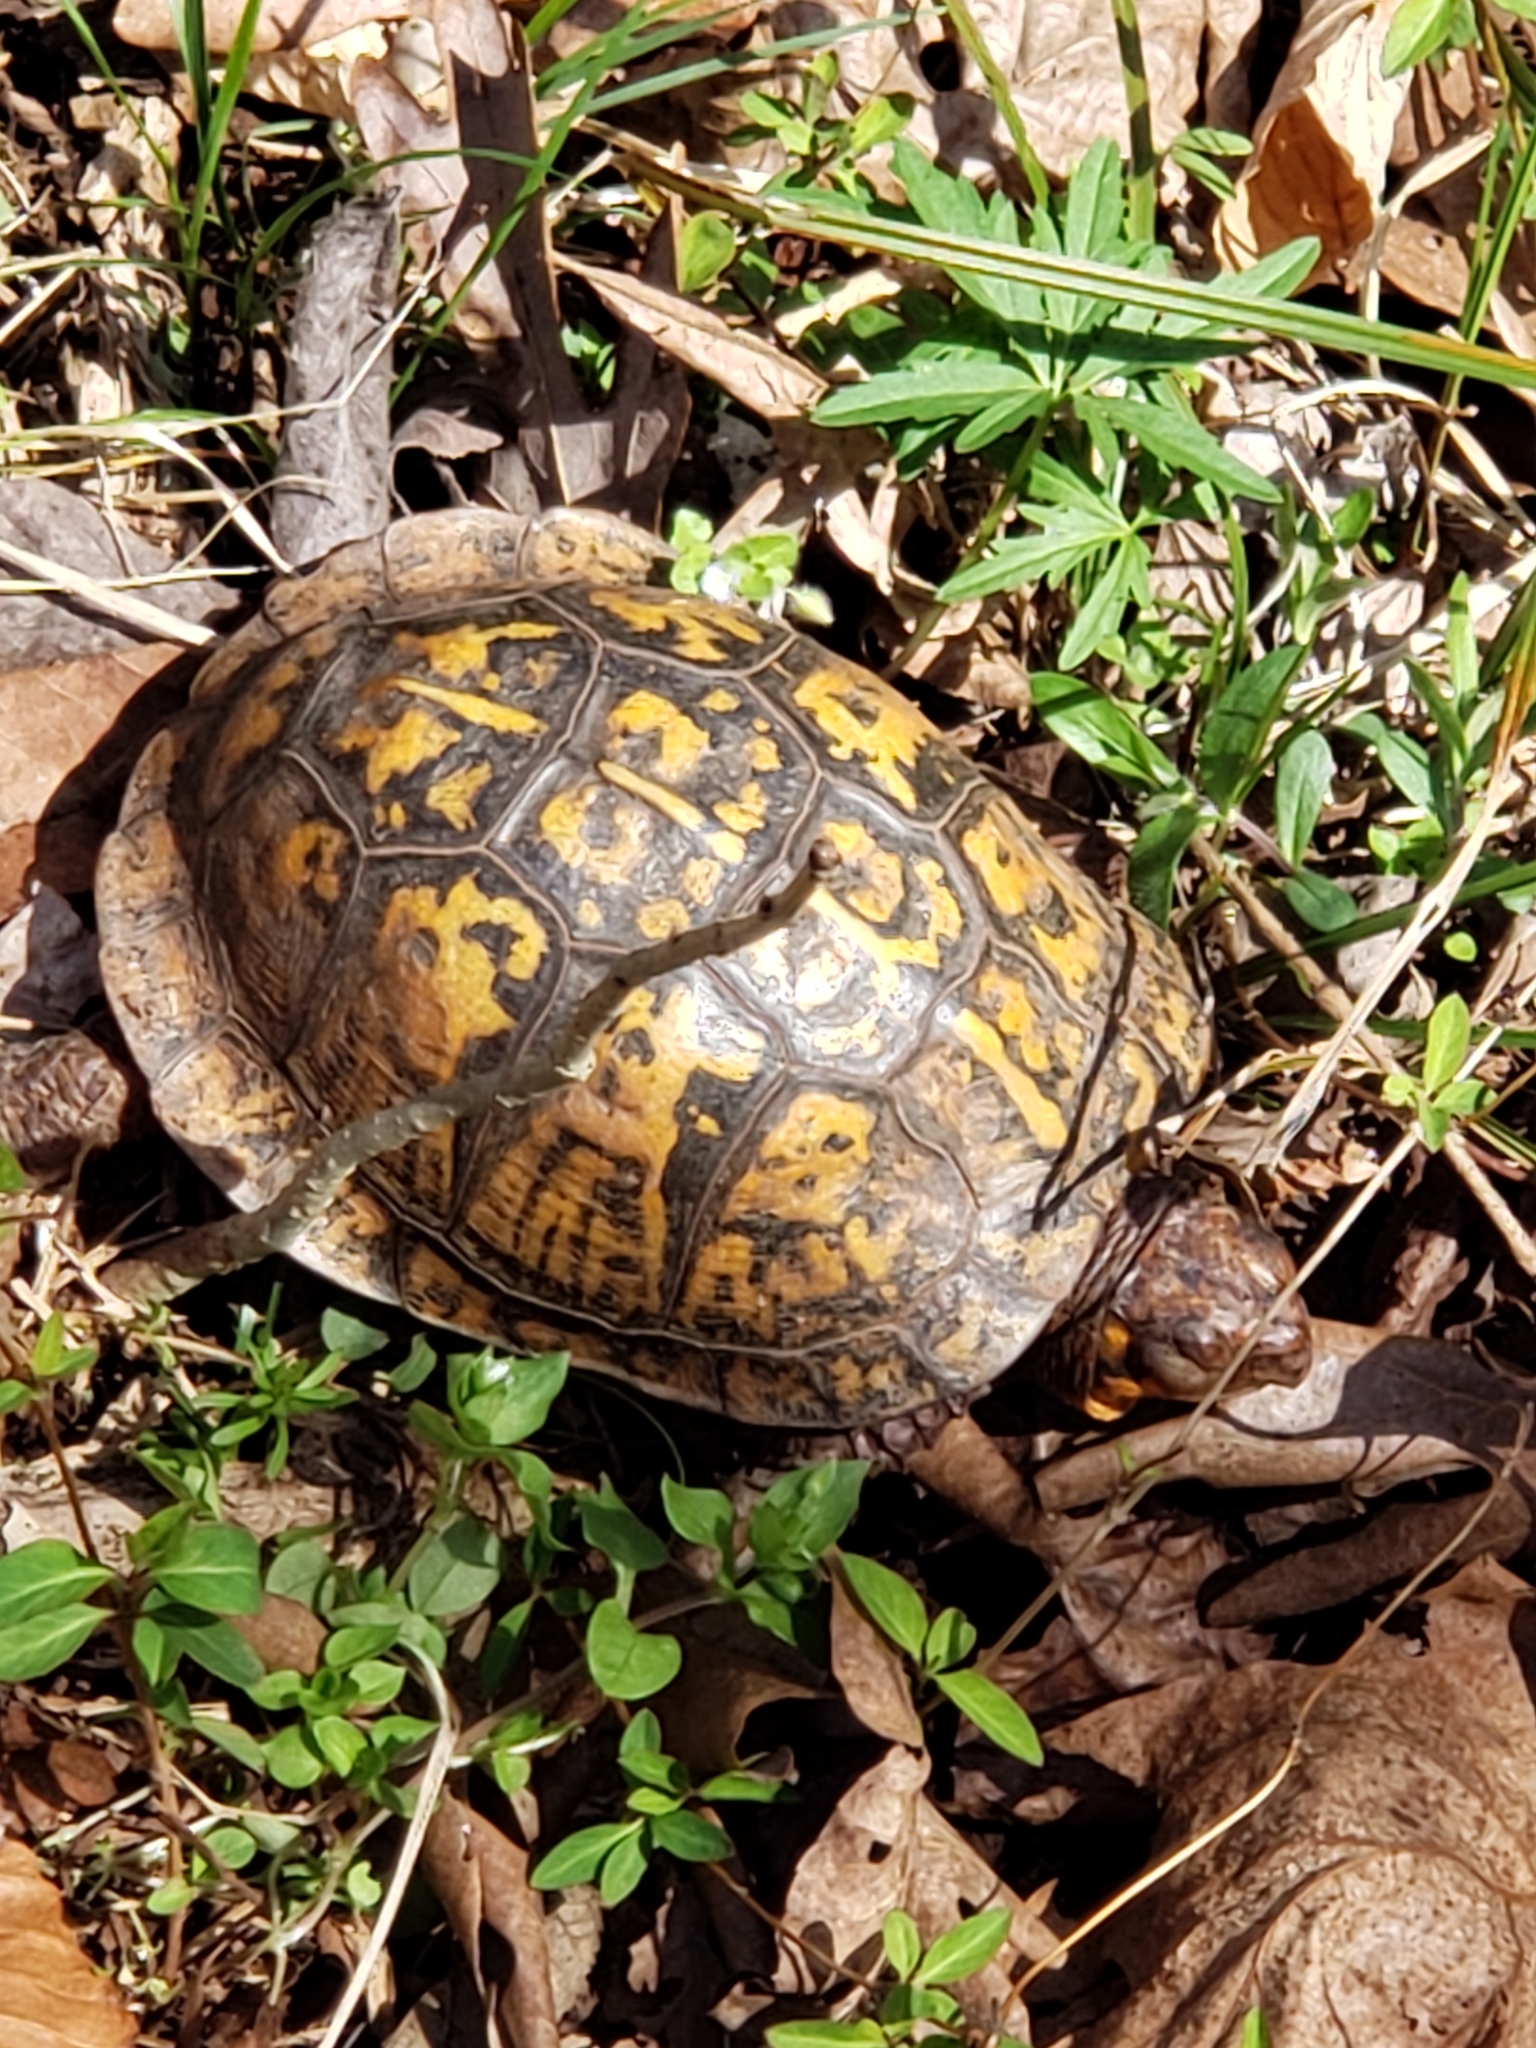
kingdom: Animalia
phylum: Chordata
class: Testudines
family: Emydidae
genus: Terrapene
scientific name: Terrapene carolina
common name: Common box turtle
